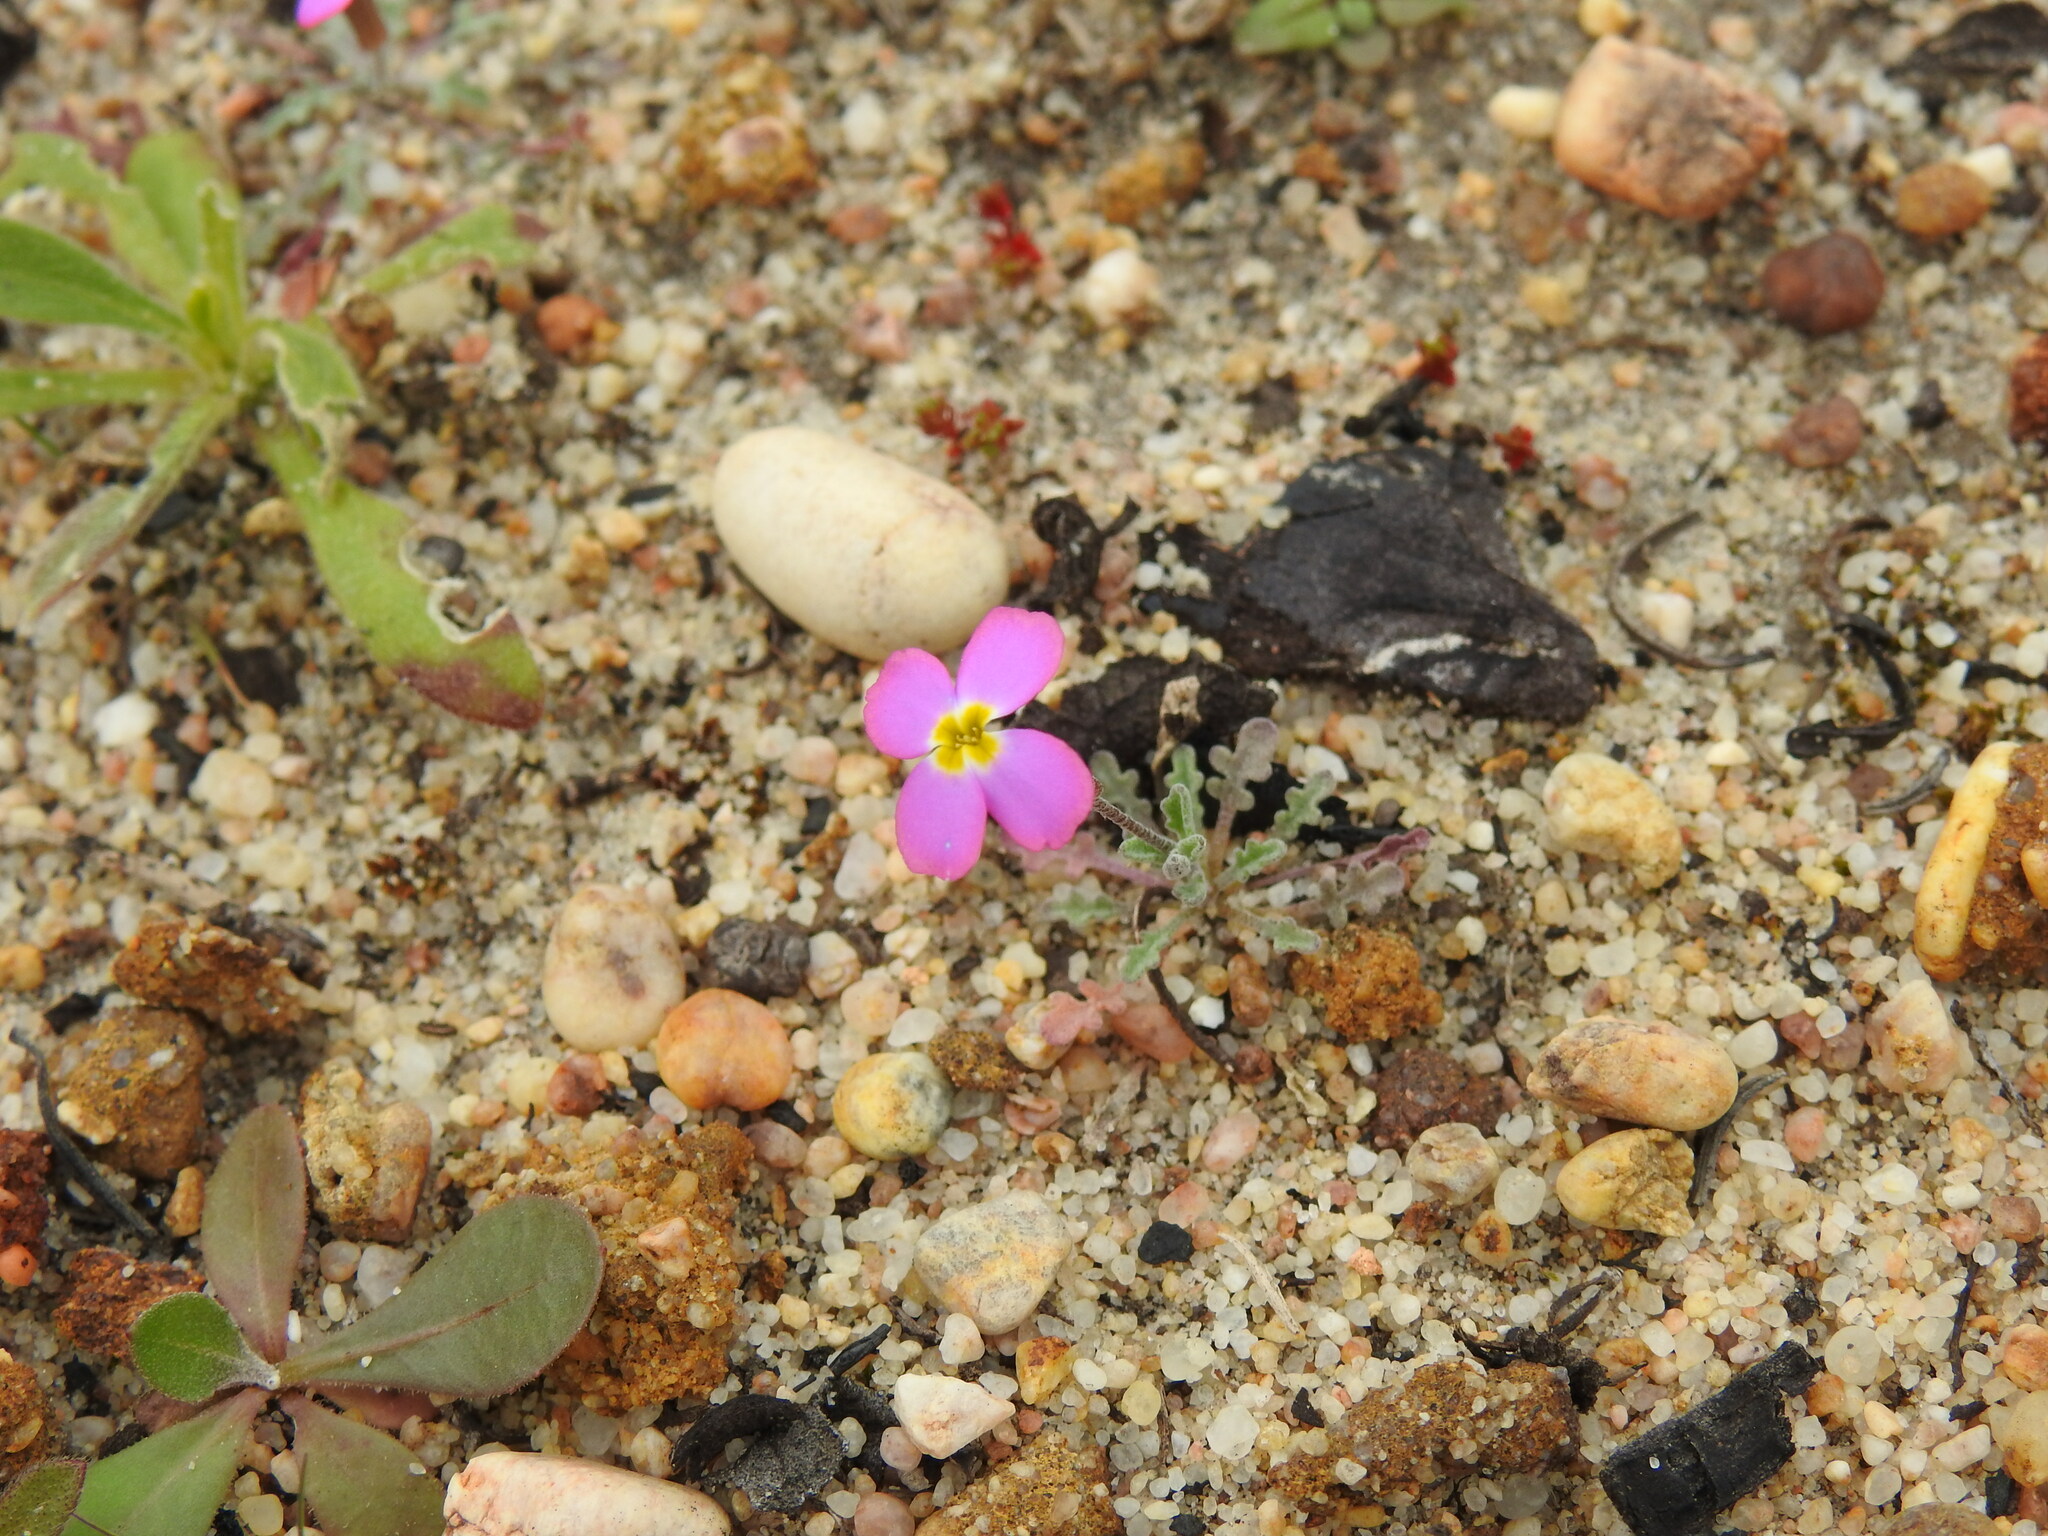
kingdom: Plantae
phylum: Tracheophyta
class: Magnoliopsida
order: Brassicales
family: Brassicaceae
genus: Marcuskochia
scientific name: Marcuskochia triloba
